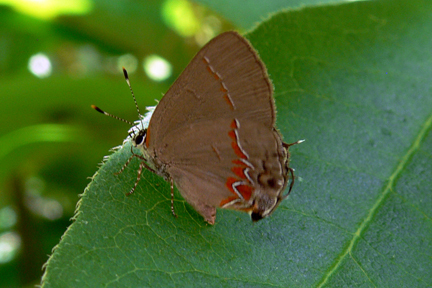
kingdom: Animalia
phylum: Arthropoda
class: Insecta
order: Lepidoptera
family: Lycaenidae
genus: Calycopis
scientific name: Calycopis cecrops
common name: Red-banded hairstreak
